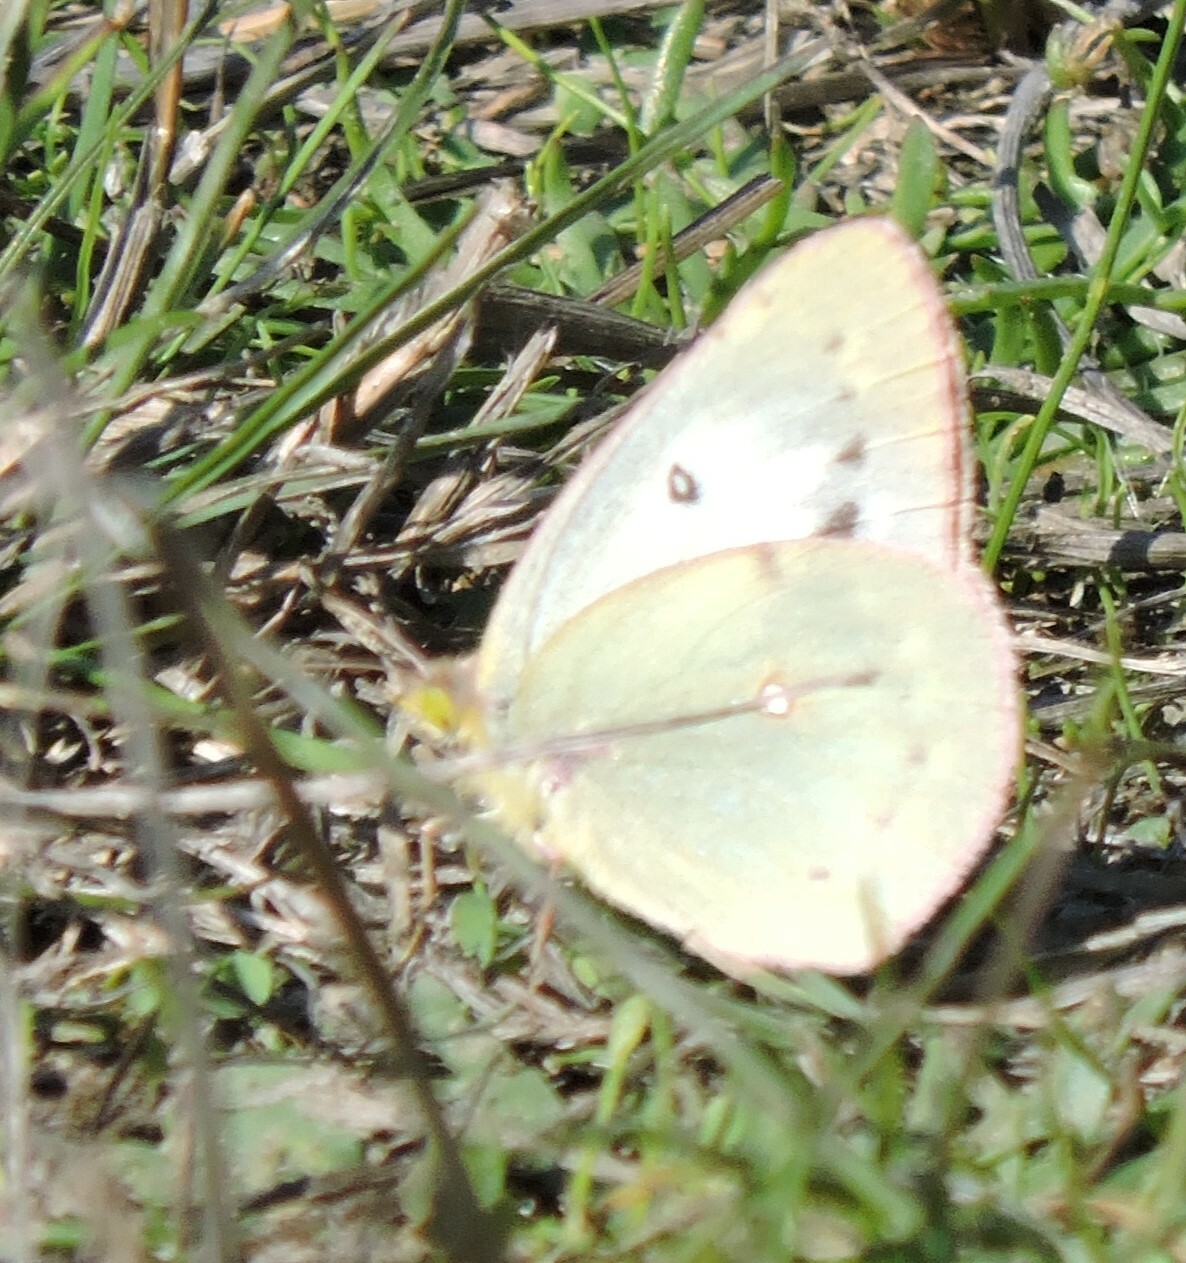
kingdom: Animalia
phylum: Arthropoda
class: Insecta
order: Lepidoptera
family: Pieridae
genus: Colias
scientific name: Colias eurytheme
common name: Alfalfa butterfly
